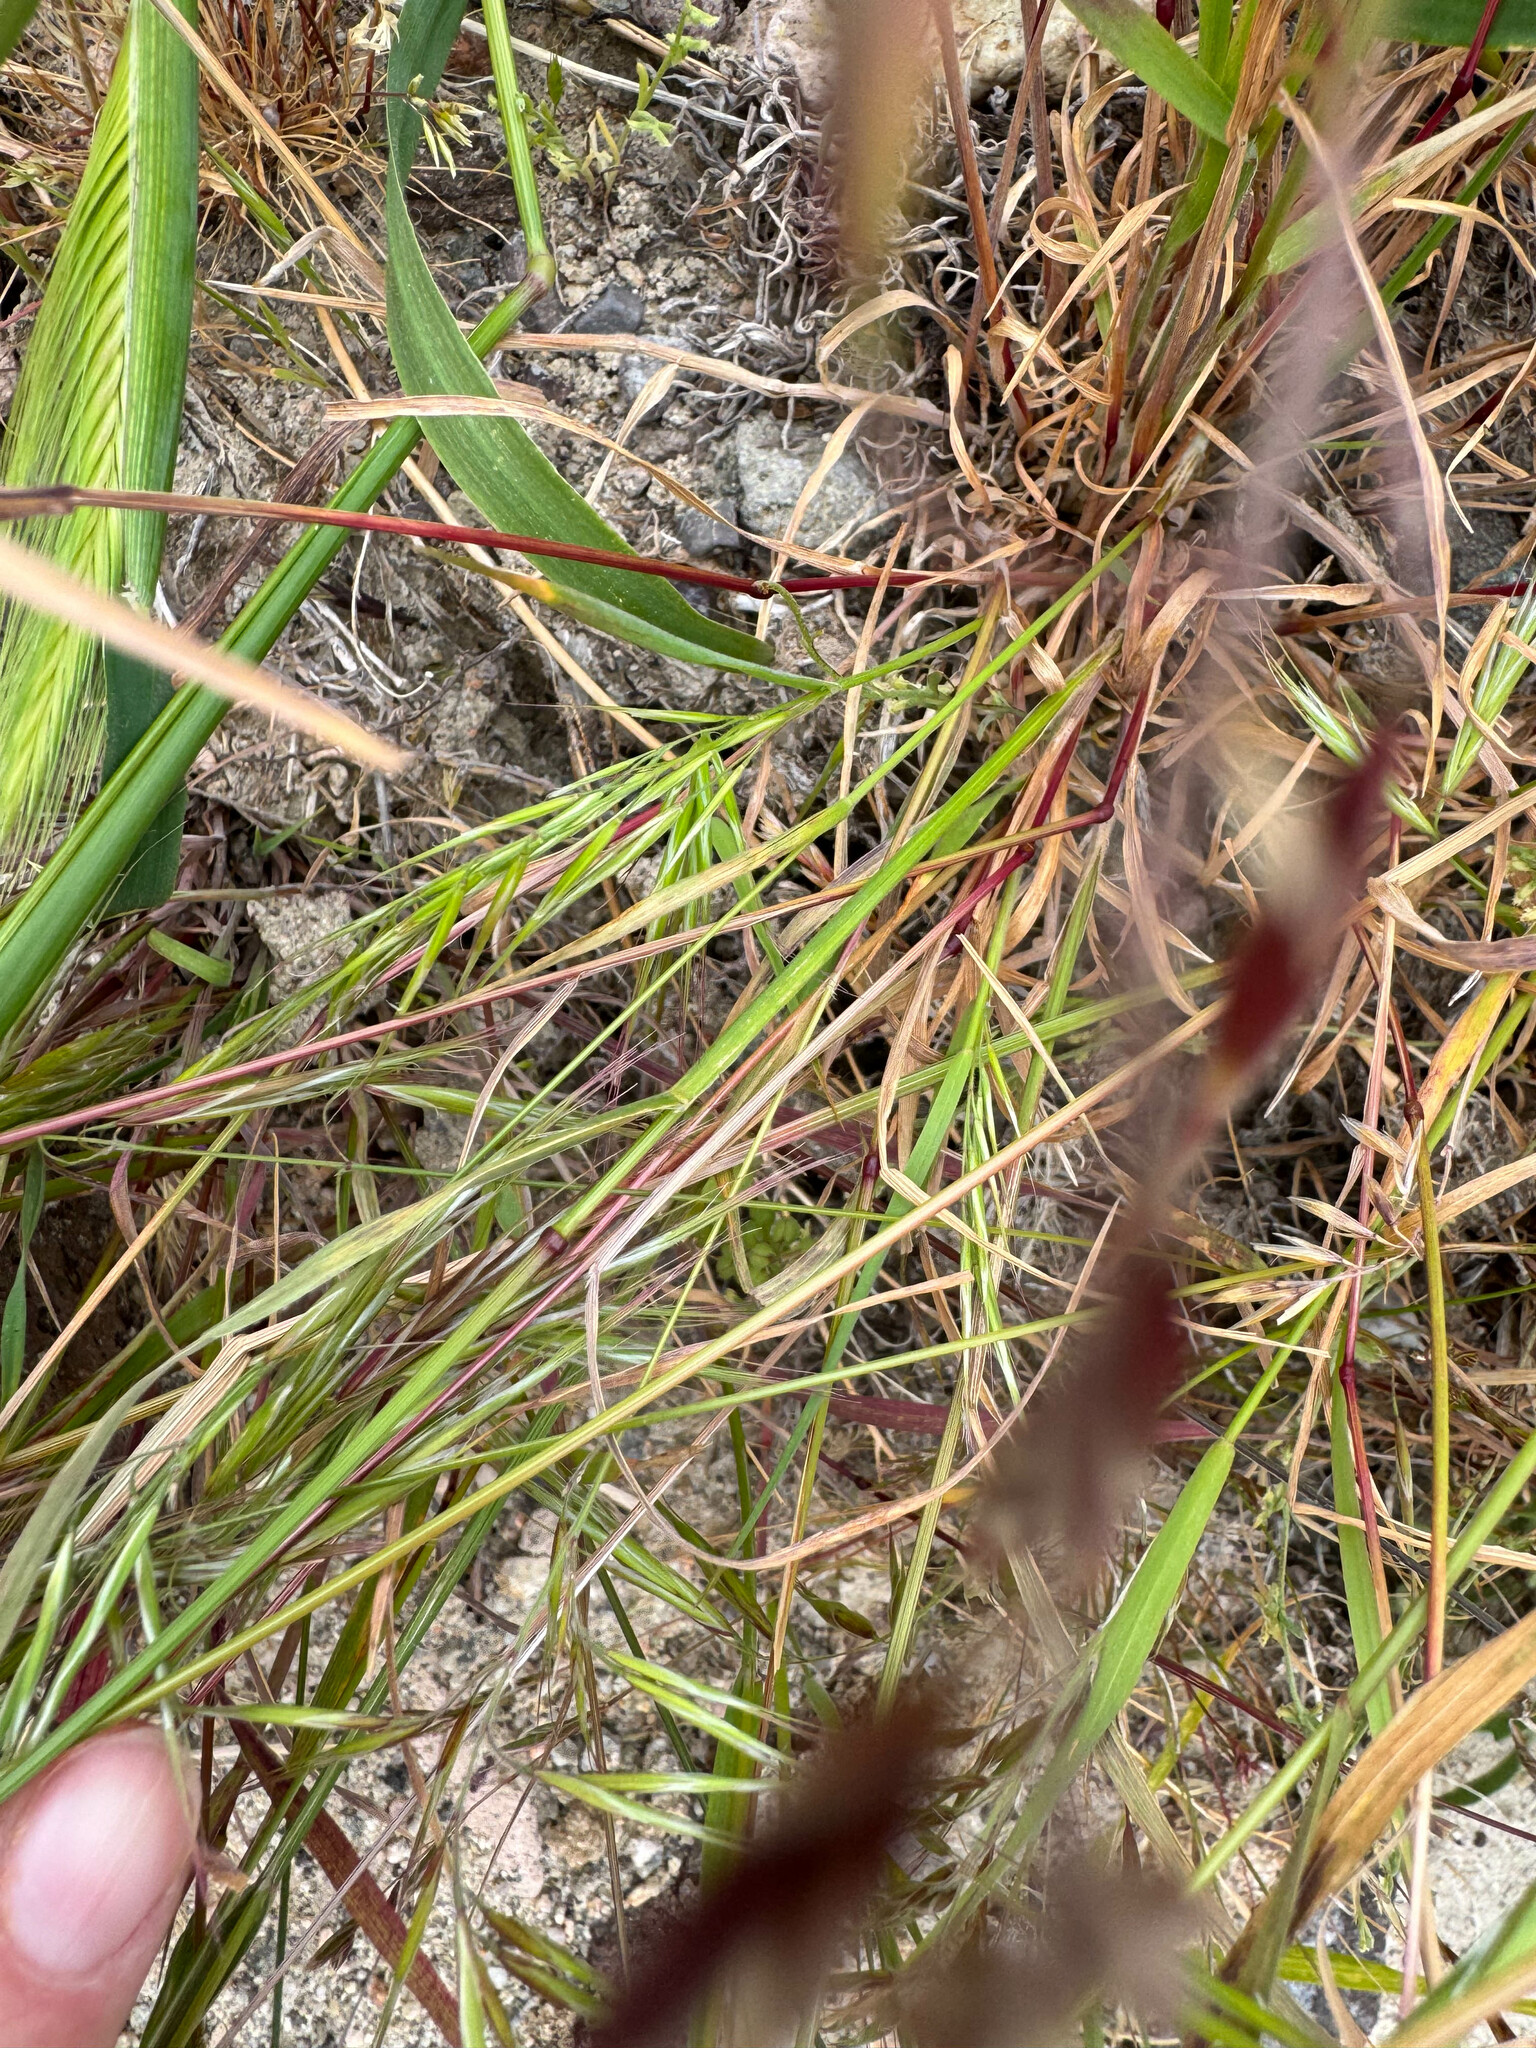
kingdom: Plantae
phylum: Tracheophyta
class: Liliopsida
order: Poales
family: Poaceae
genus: Bromus
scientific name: Bromus tectorum
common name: Cheatgrass
